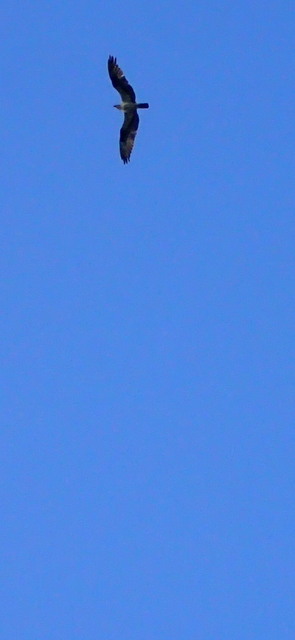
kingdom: Animalia
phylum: Chordata
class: Aves
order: Accipitriformes
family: Pandionidae
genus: Pandion
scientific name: Pandion haliaetus
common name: Osprey
